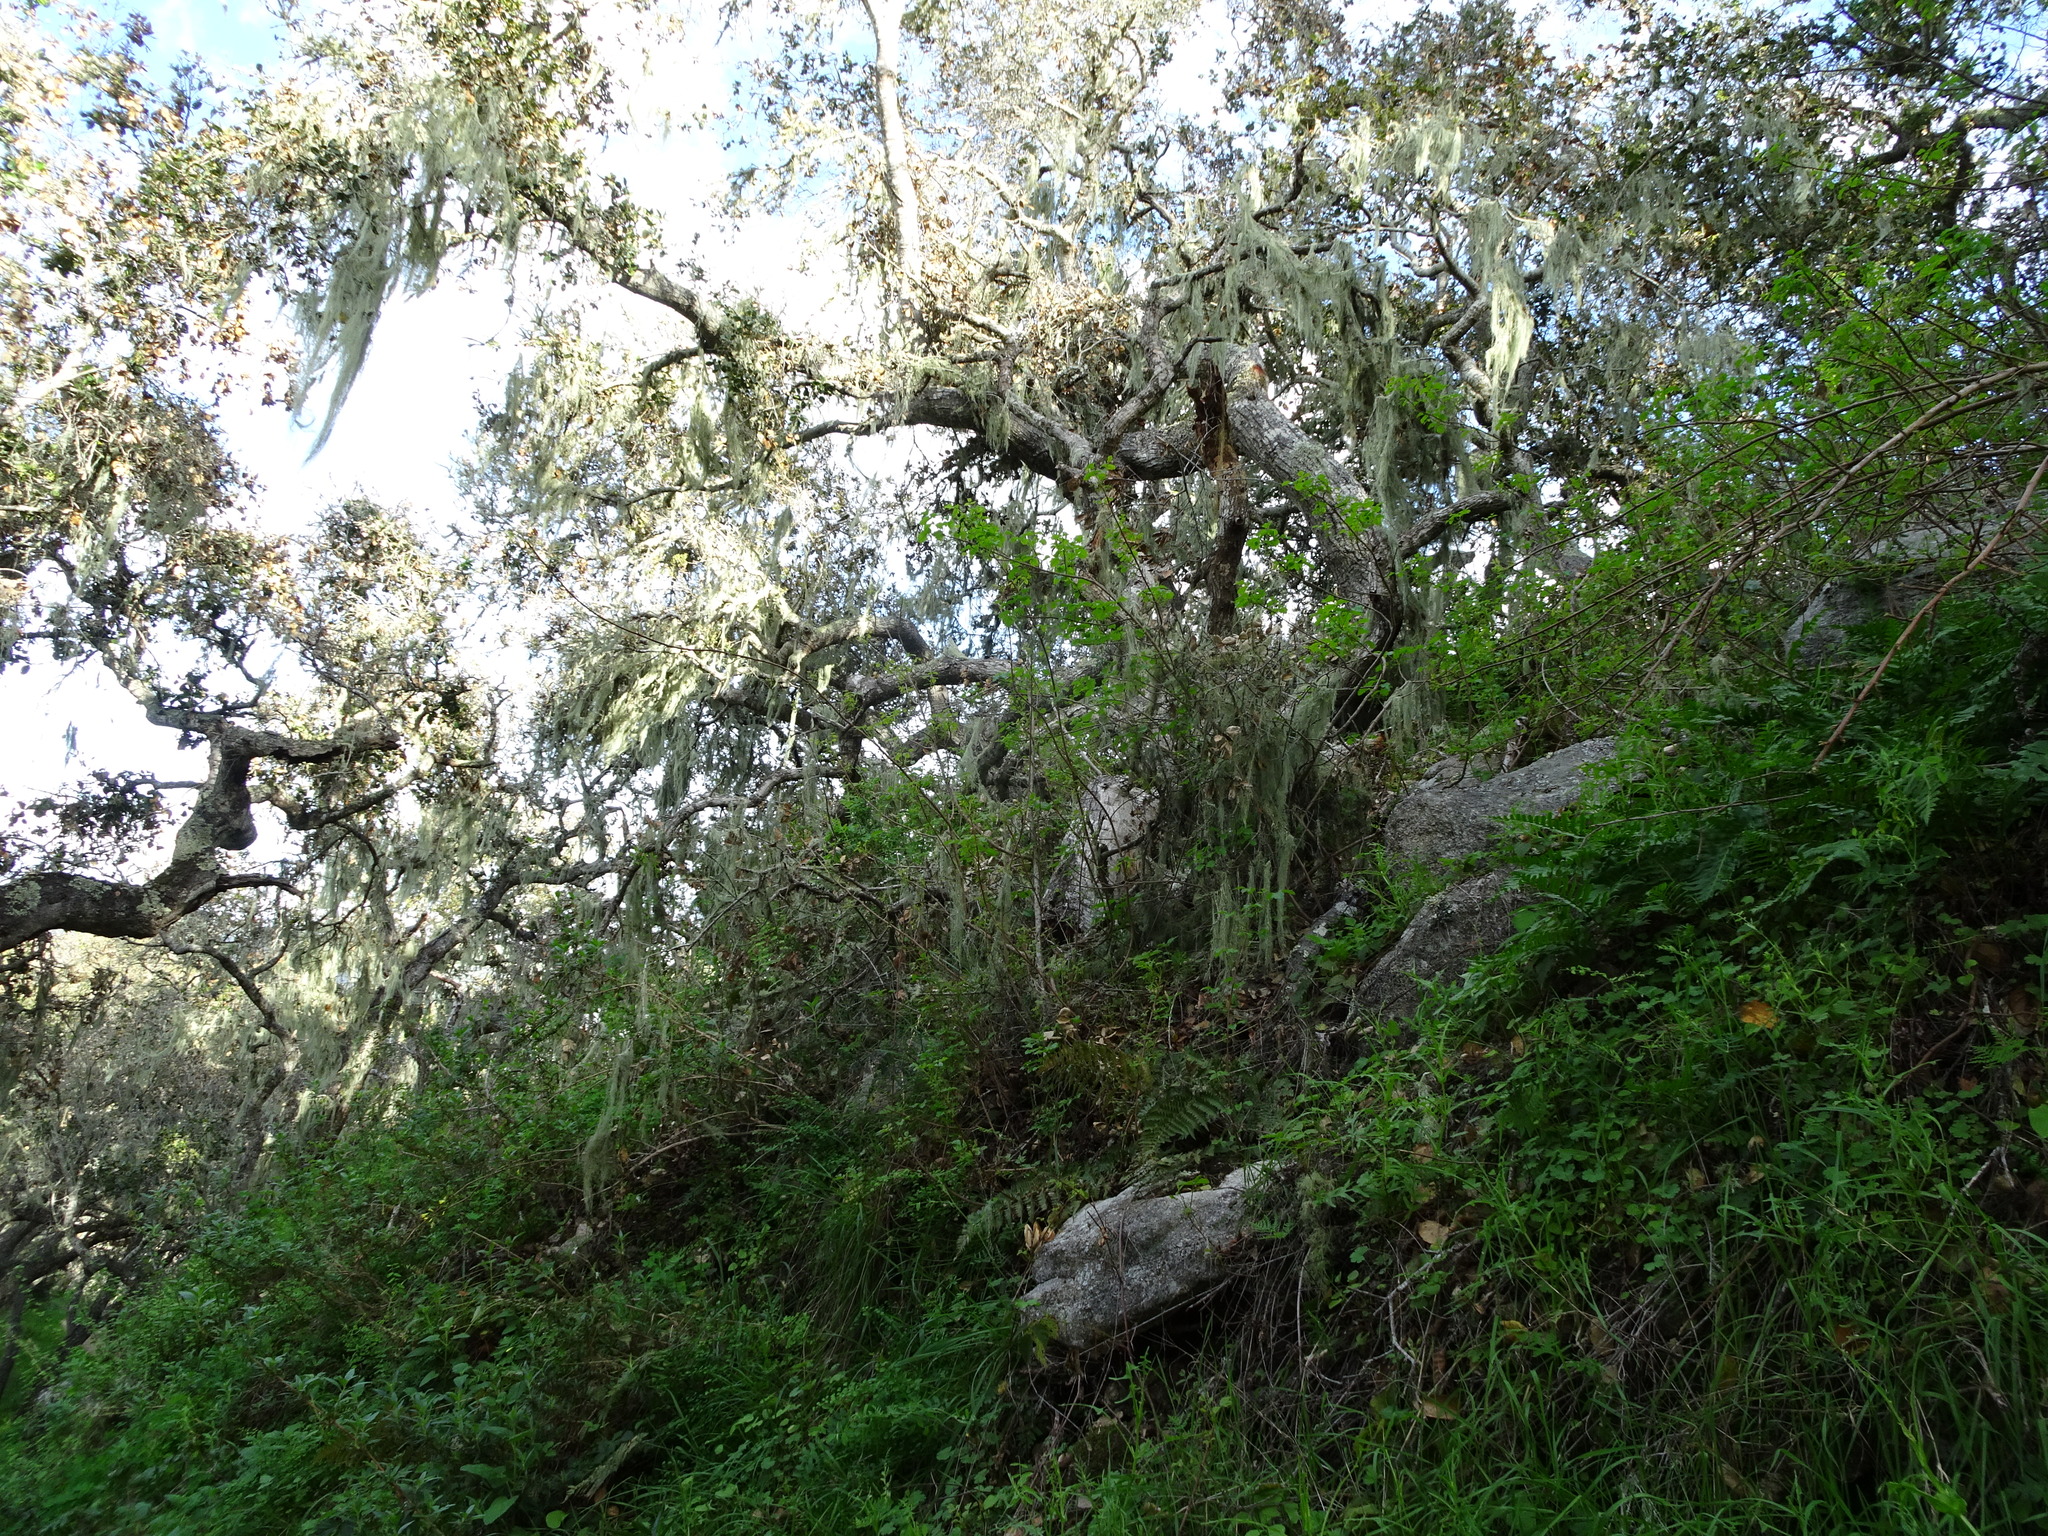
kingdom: Plantae
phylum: Tracheophyta
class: Magnoliopsida
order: Fagales
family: Fagaceae
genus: Quercus
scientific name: Quercus agrifolia
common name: California live oak
